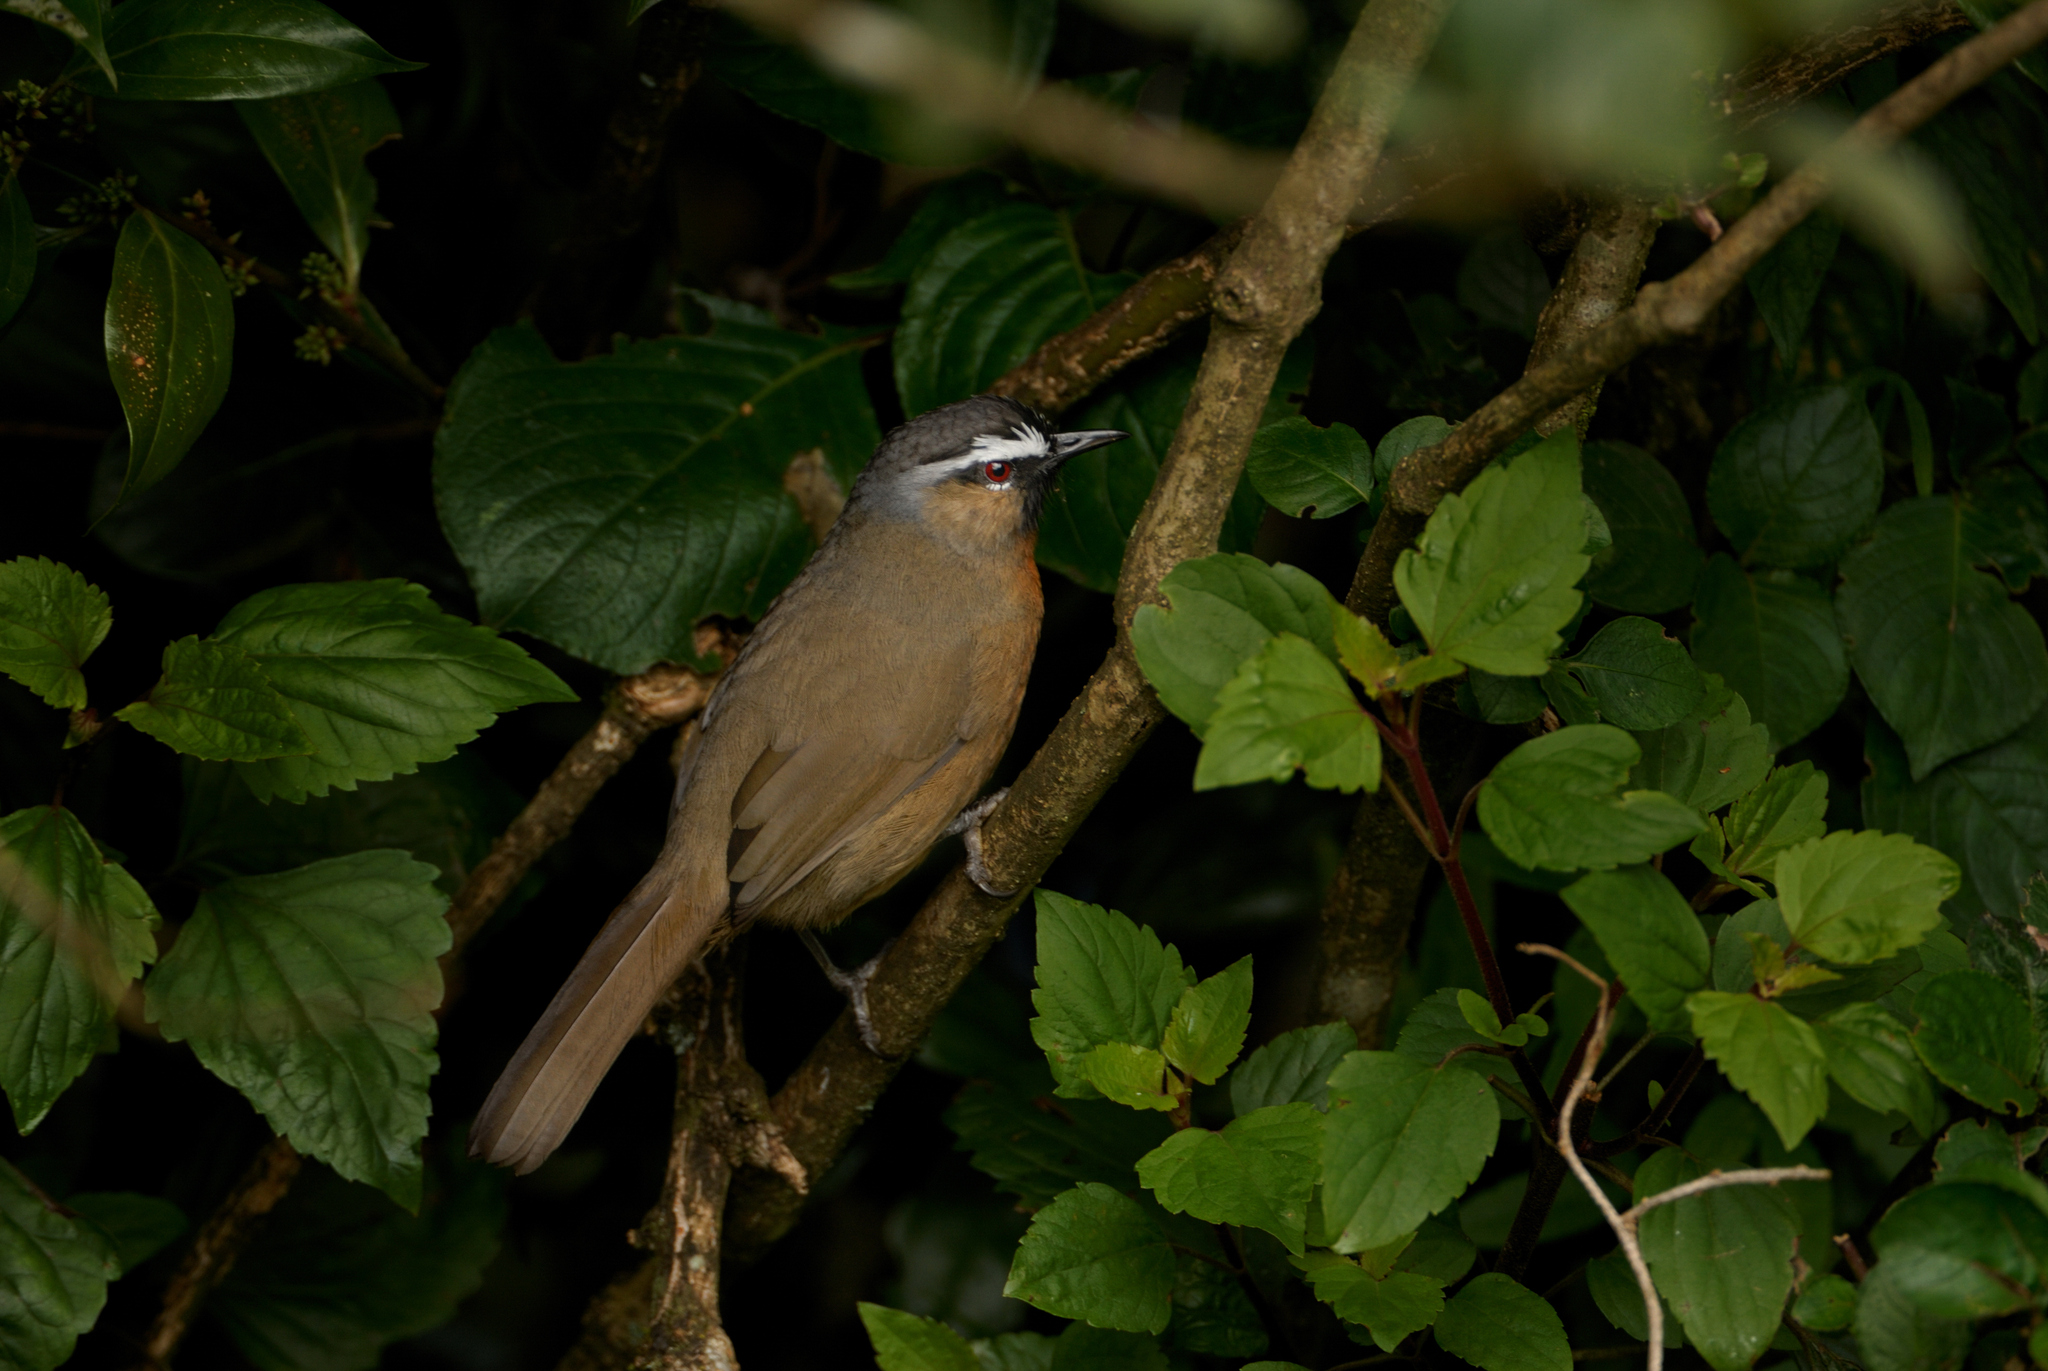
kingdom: Animalia
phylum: Chordata
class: Aves
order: Passeriformes
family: Leiothrichidae
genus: Trochalopteron
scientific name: Trochalopteron cachinnans
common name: Black-chinned laughingthrush
